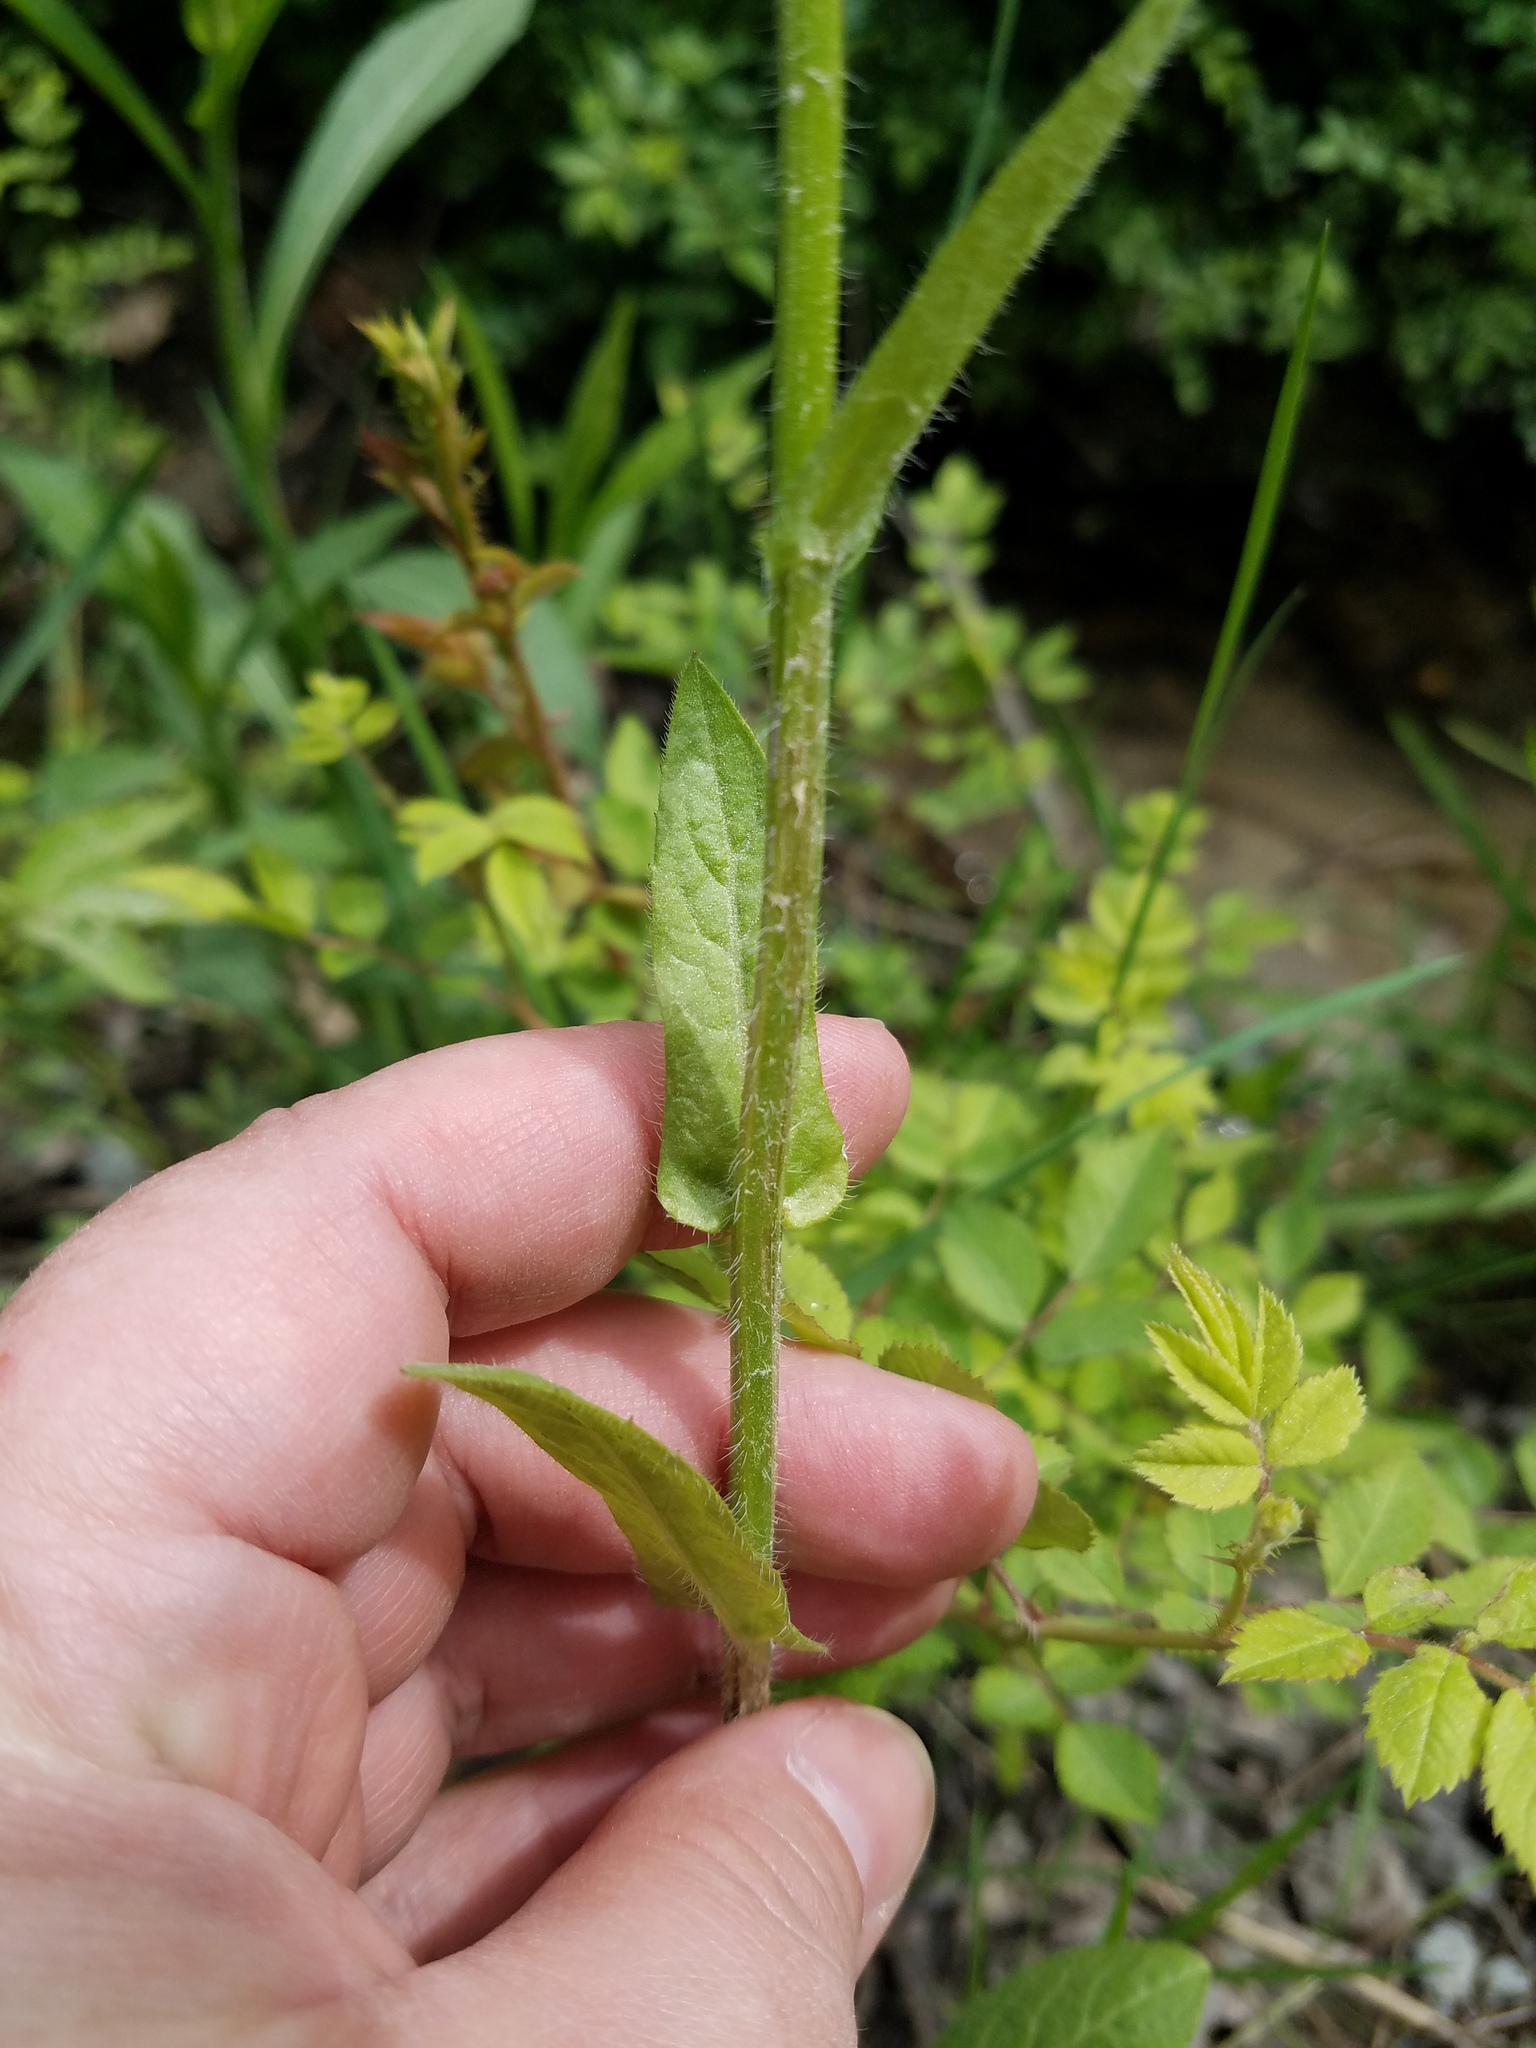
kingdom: Plantae
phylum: Tracheophyta
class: Magnoliopsida
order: Asterales
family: Asteraceae
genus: Erigeron
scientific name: Erigeron philadelphicus
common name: Robin's-plantain
